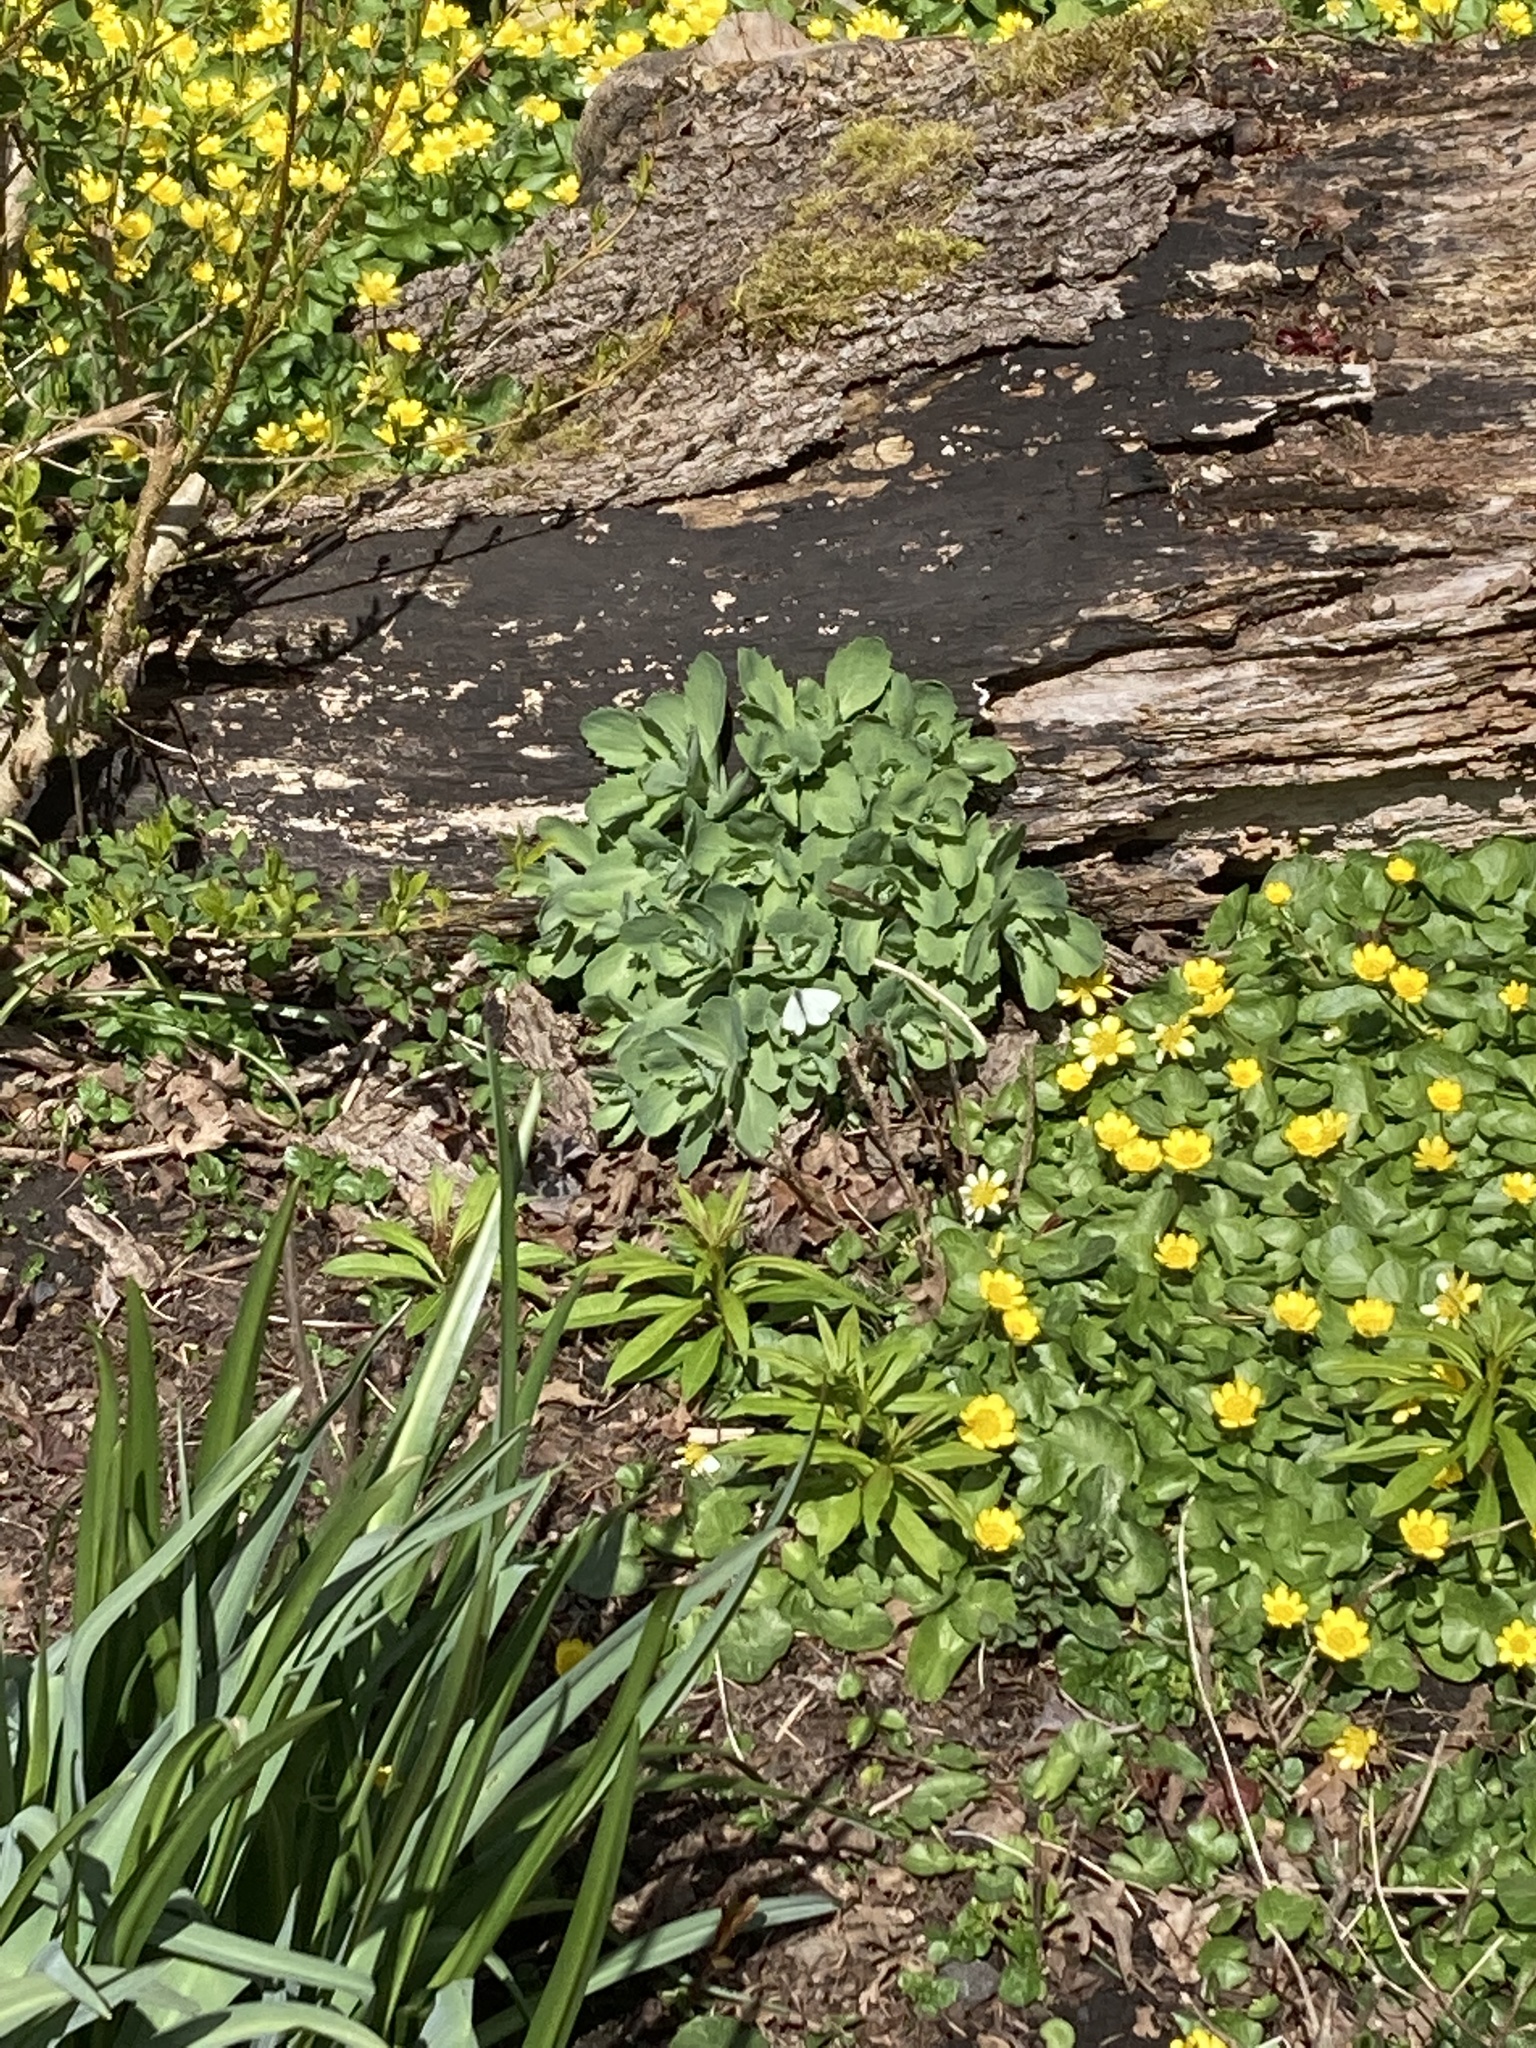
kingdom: Animalia
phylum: Arthropoda
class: Insecta
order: Lepidoptera
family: Pieridae
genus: Pieris
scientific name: Pieris rapae
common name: Small white
